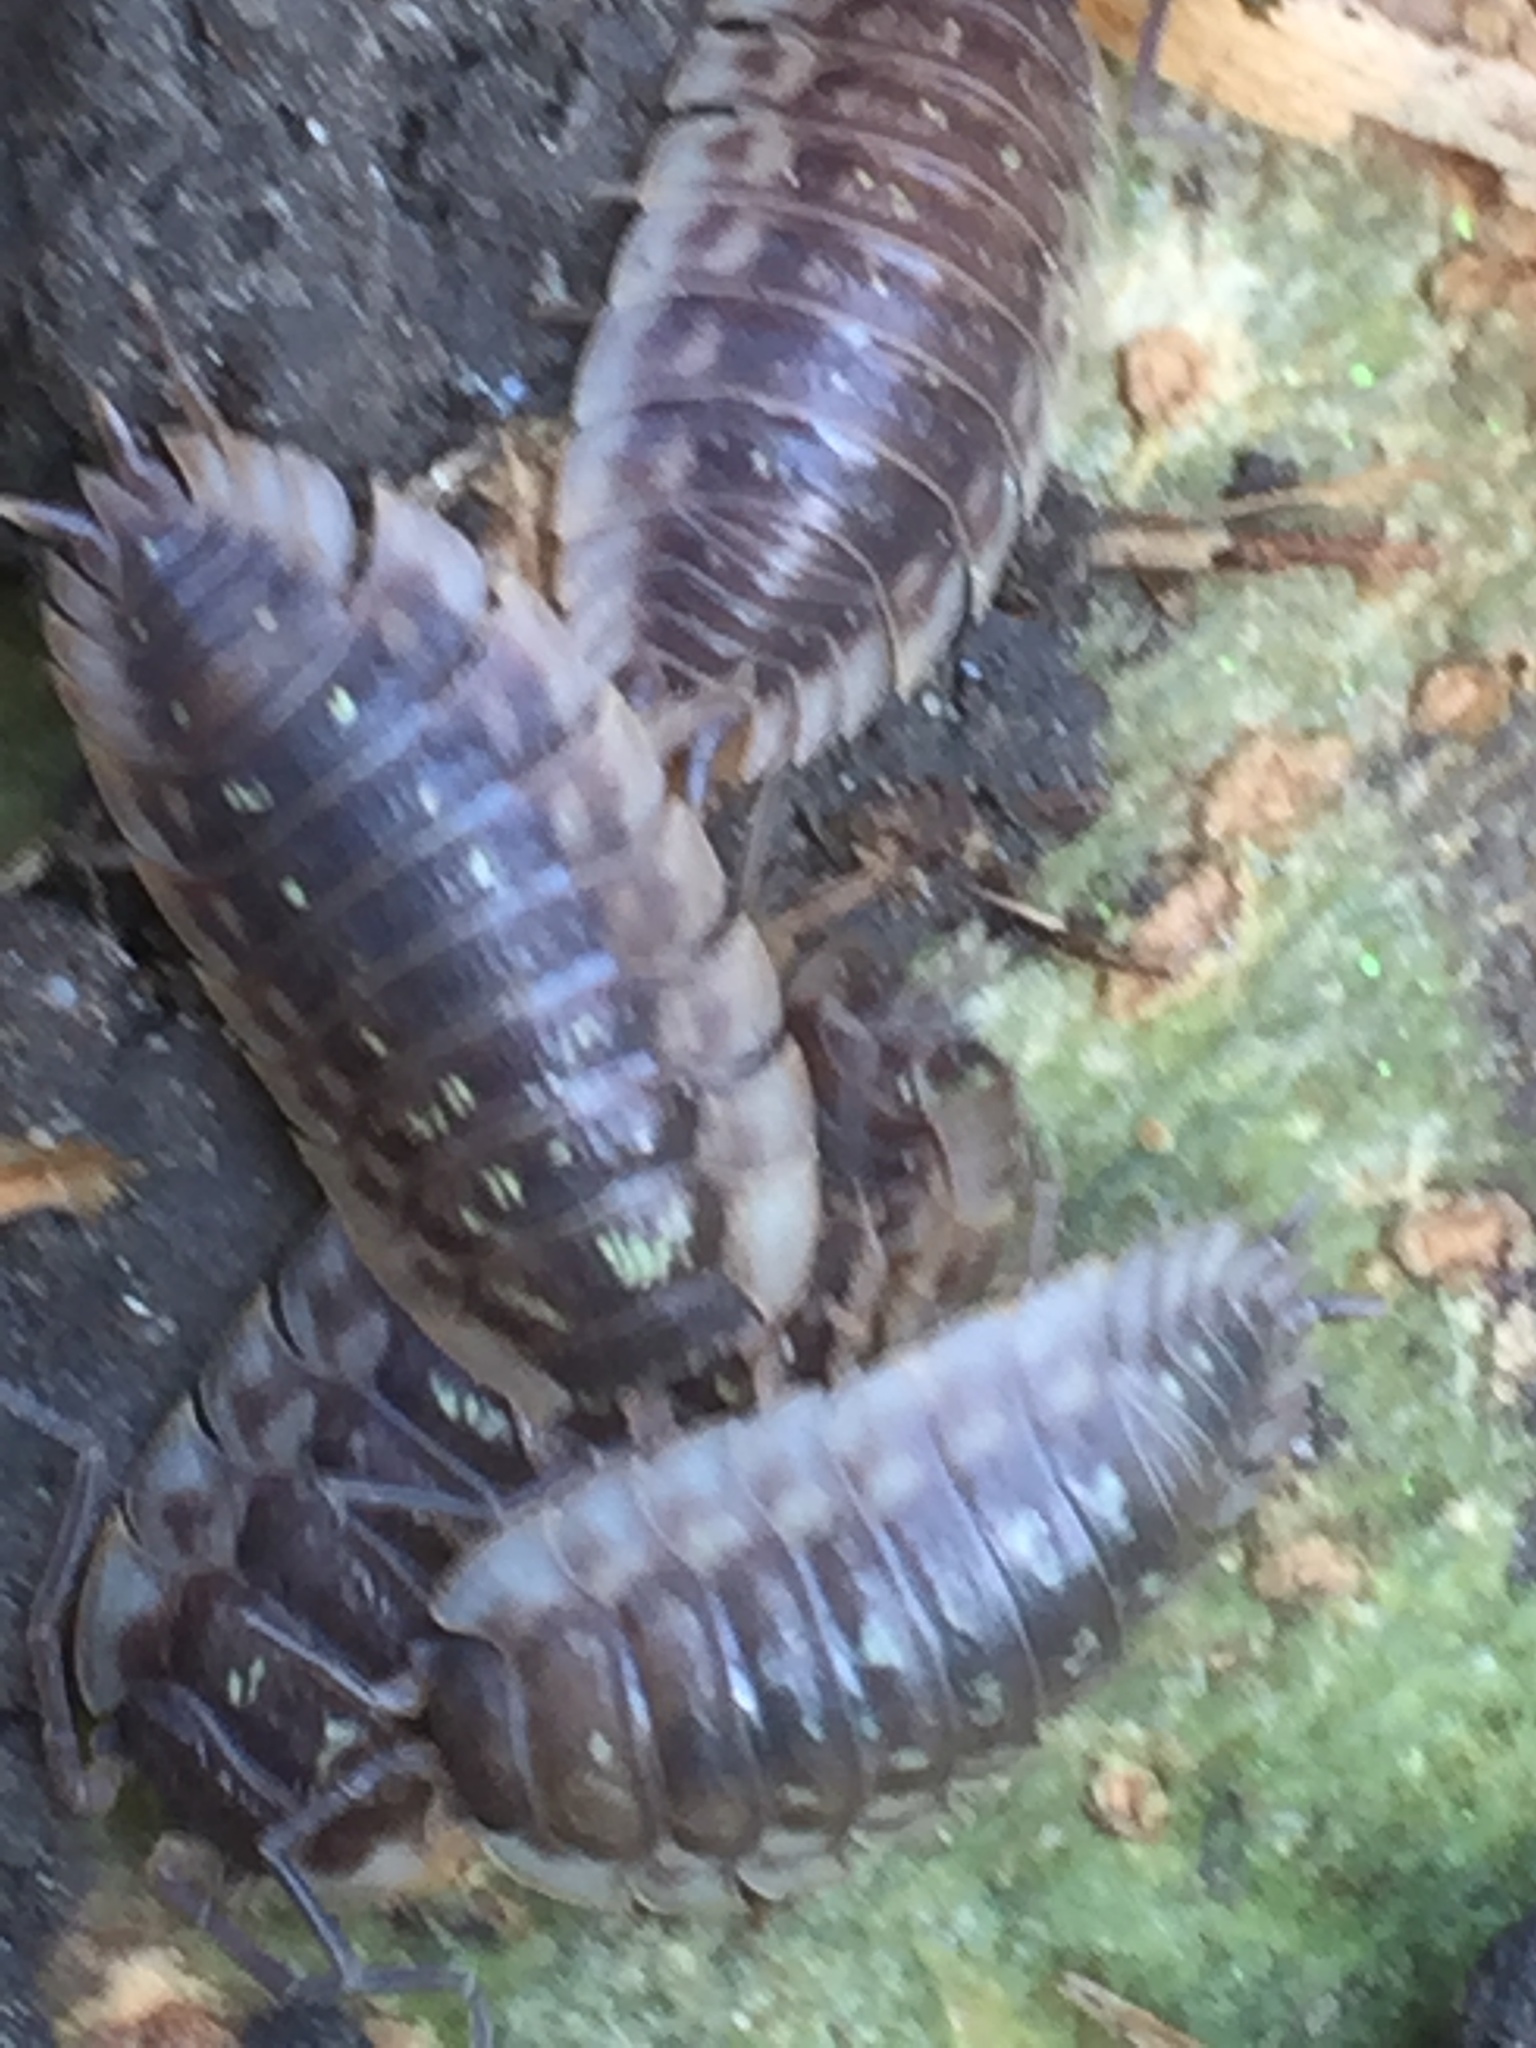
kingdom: Animalia
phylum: Arthropoda
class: Malacostraca
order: Isopoda
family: Oniscidae
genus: Oniscus
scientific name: Oniscus asellus
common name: Common shiny woodlouse
